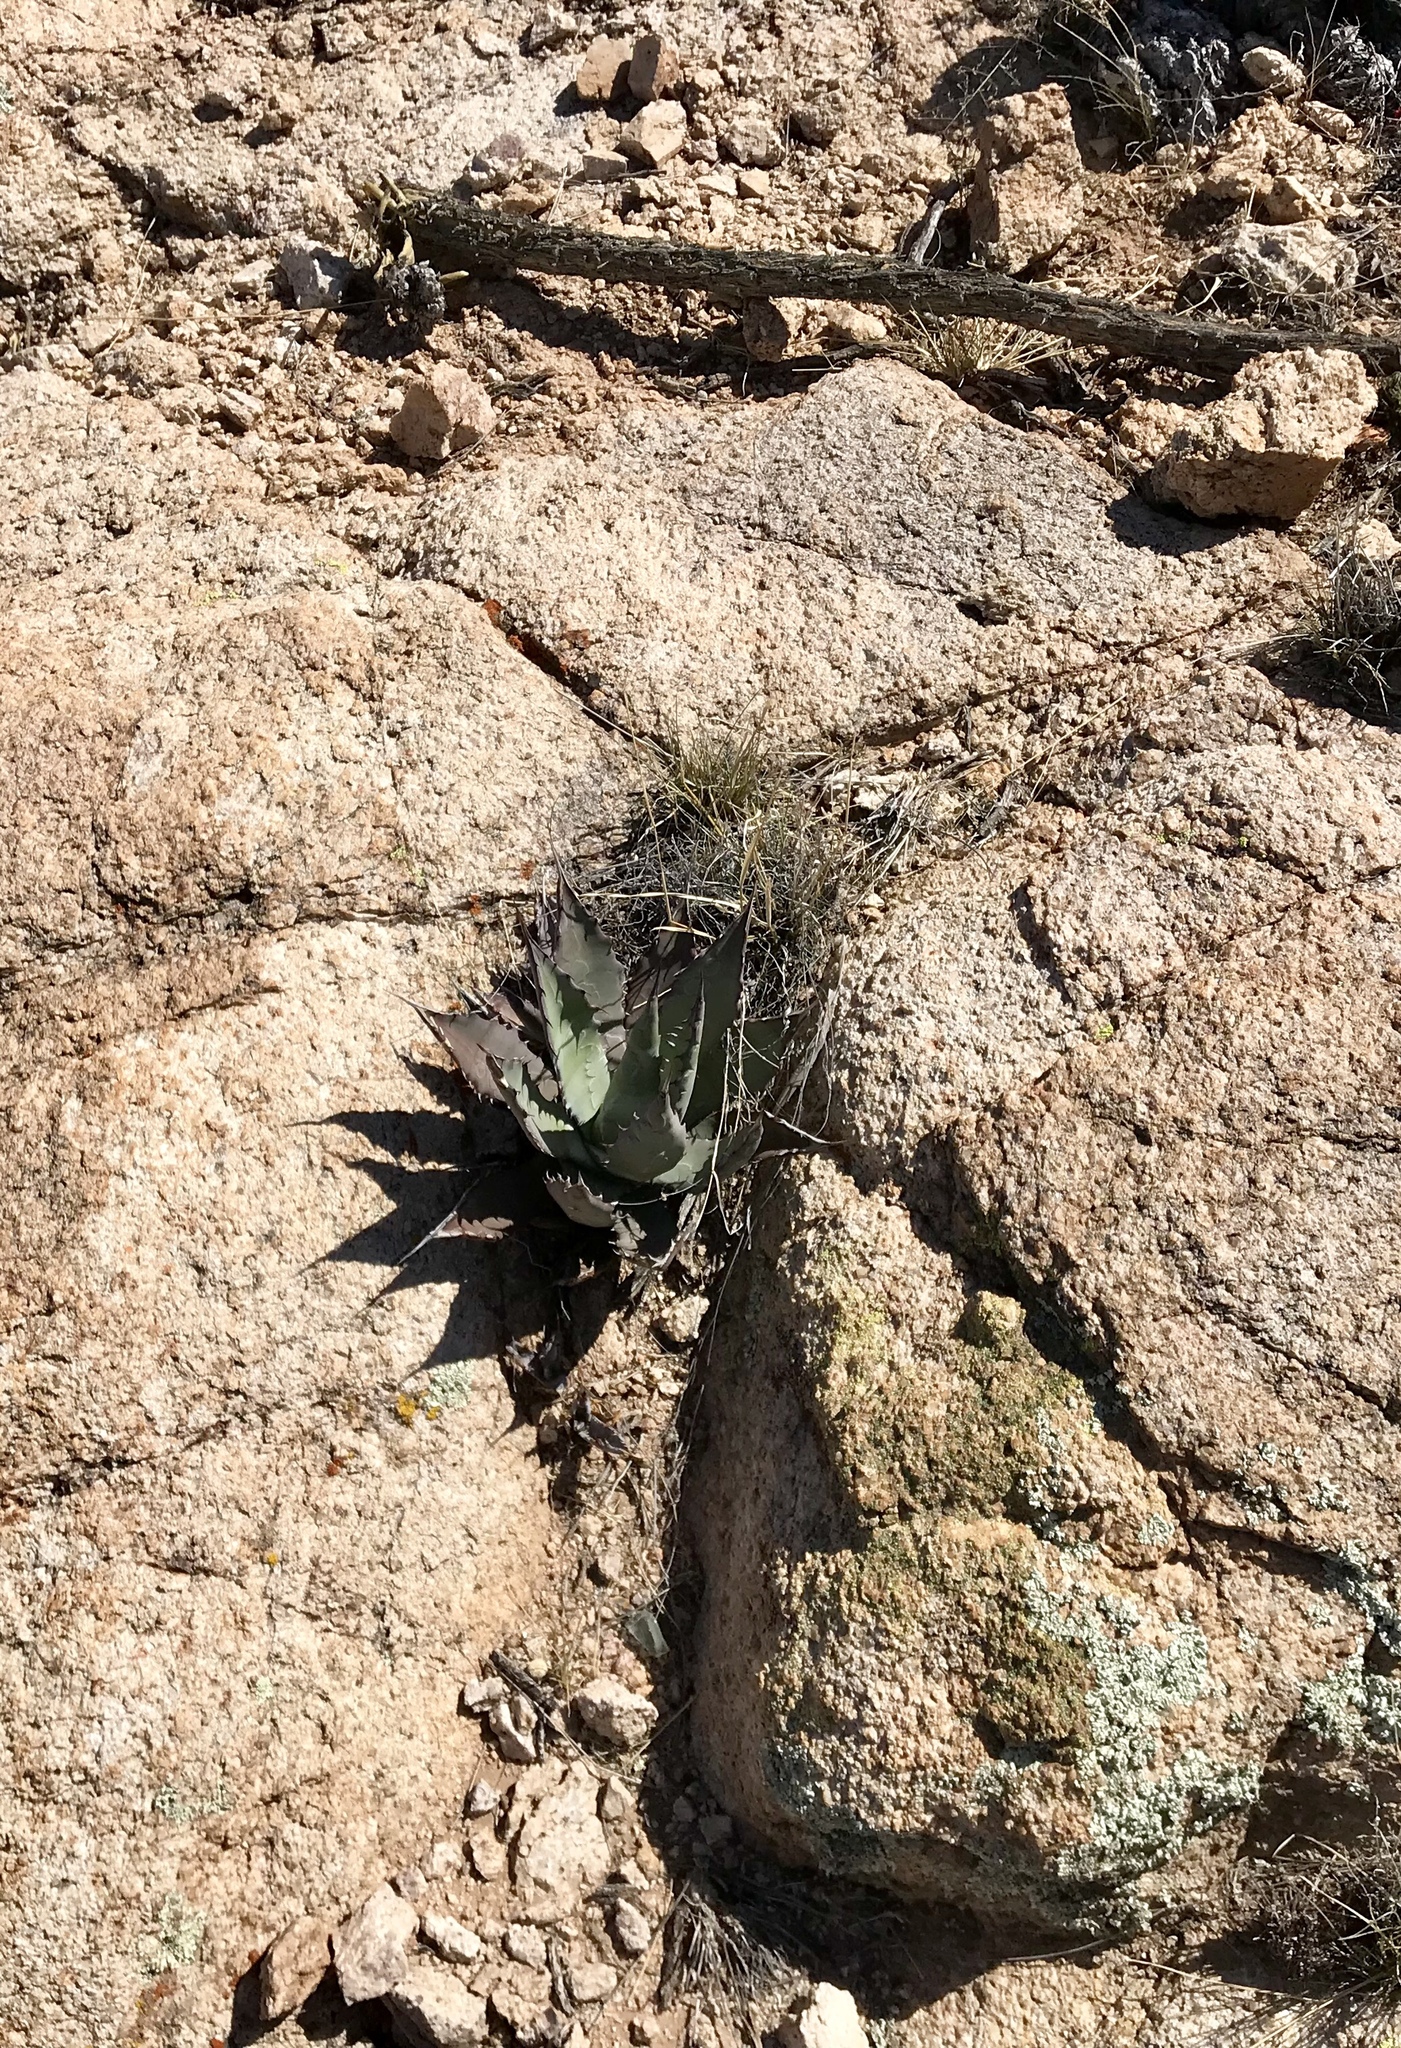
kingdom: Plantae
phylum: Tracheophyta
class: Liliopsida
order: Asparagales
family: Asparagaceae
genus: Agave
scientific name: Agave palmeri
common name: Palmer agave
